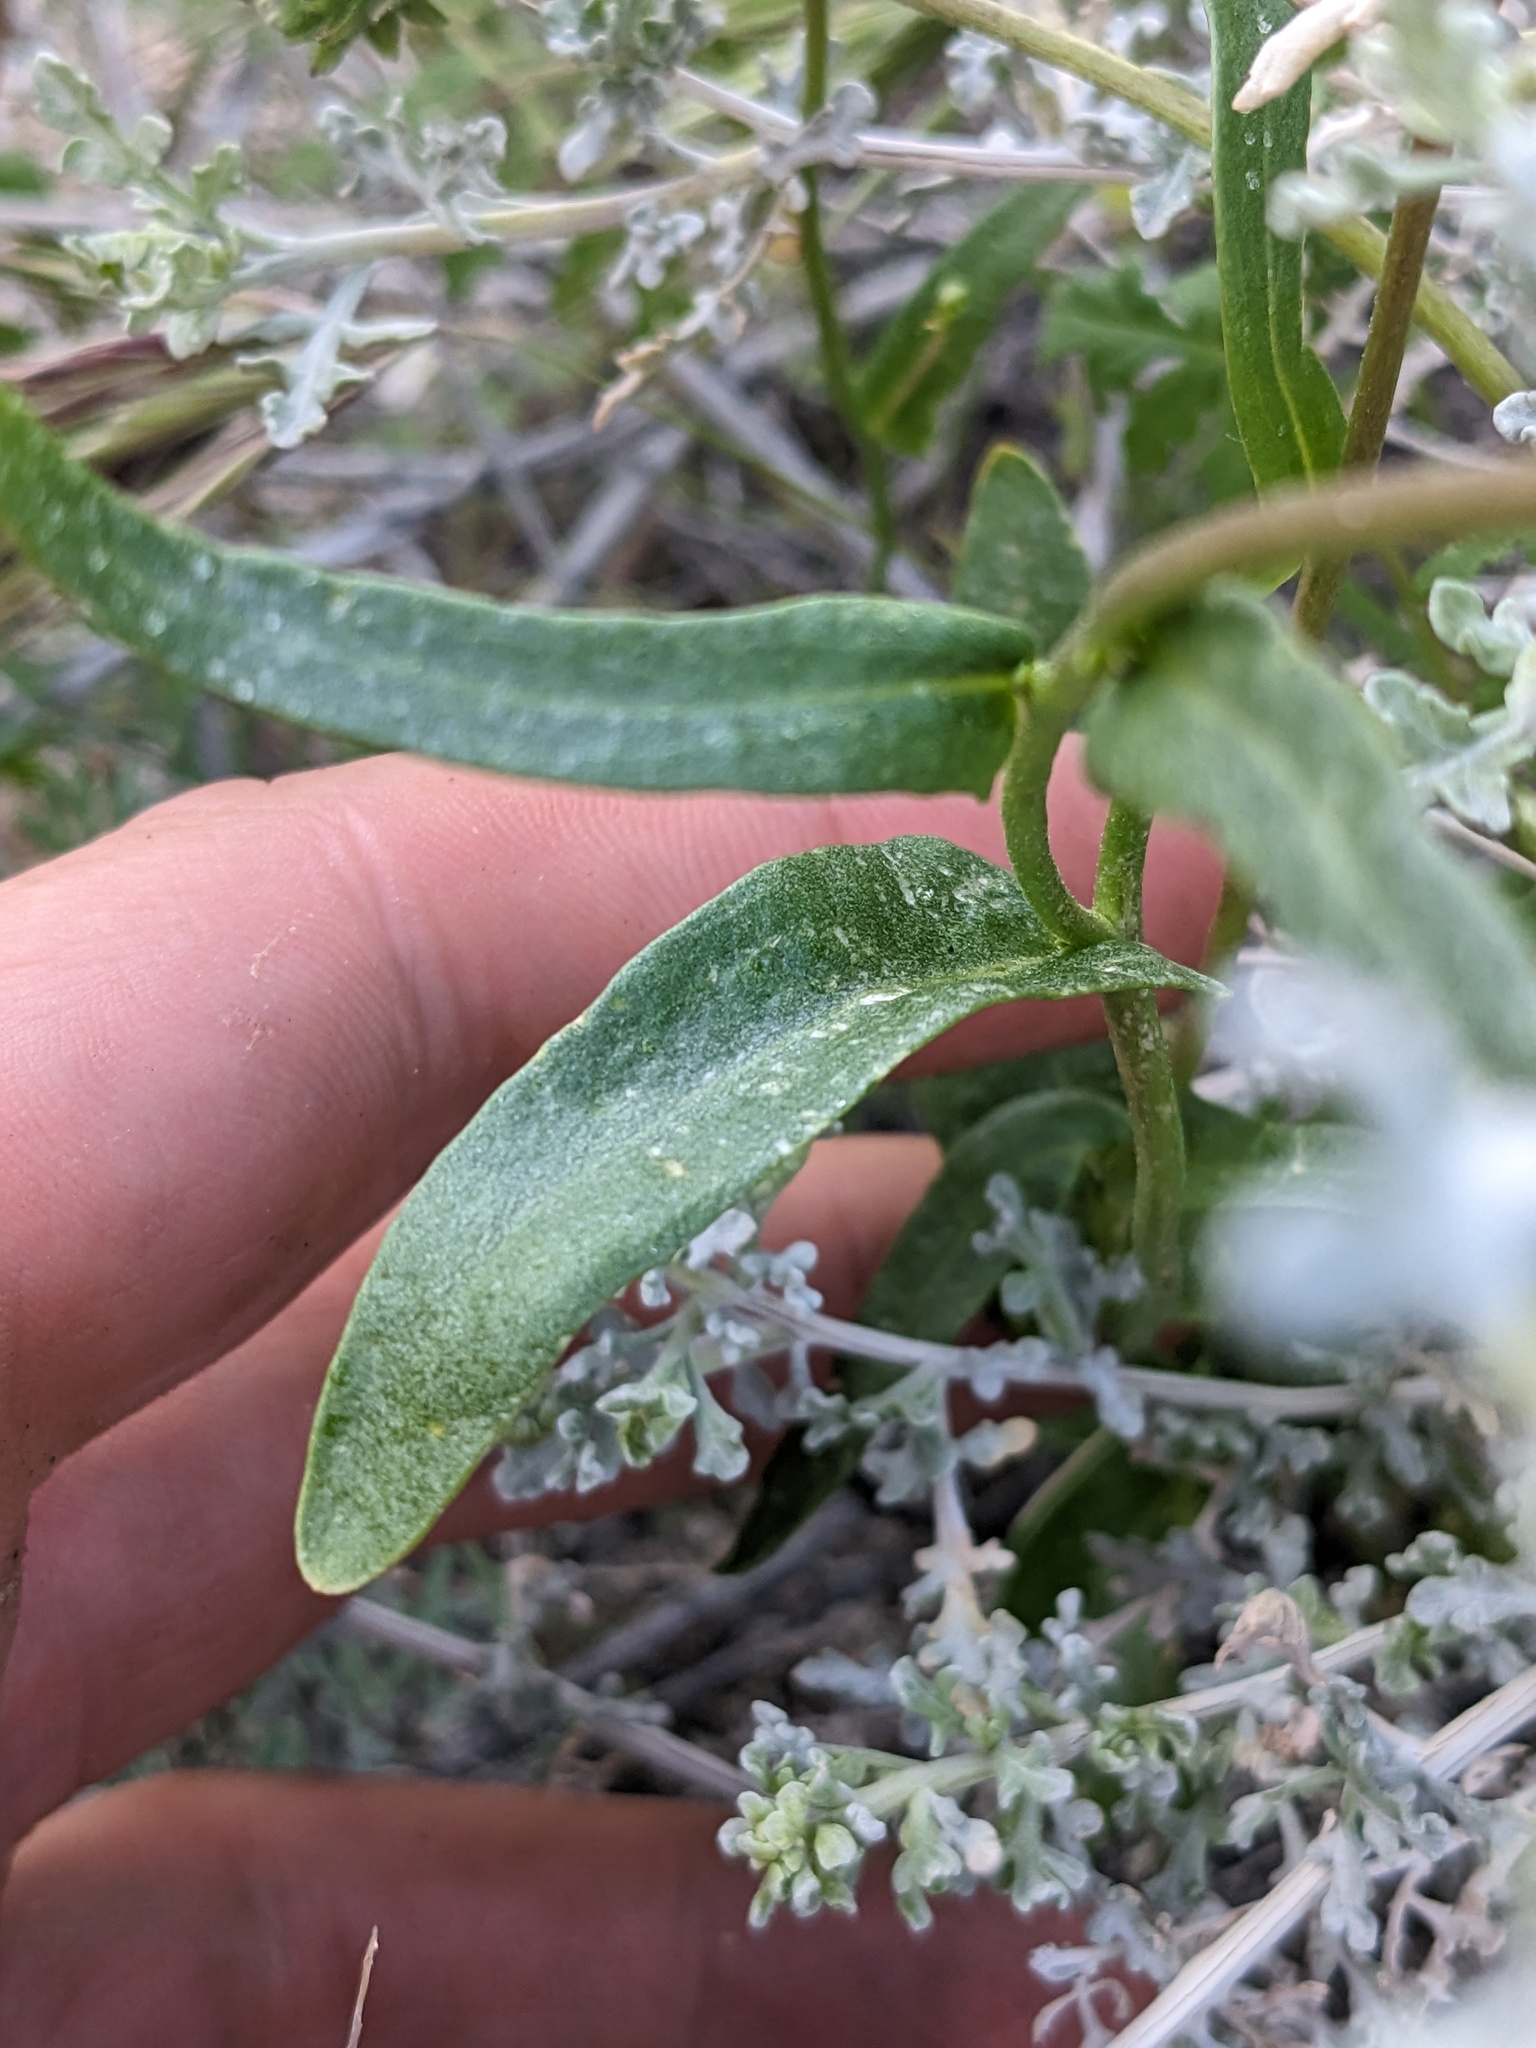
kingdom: Plantae
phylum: Tracheophyta
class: Magnoliopsida
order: Brassicales
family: Brassicaceae
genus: Streptanthus
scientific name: Streptanthus cooperi
